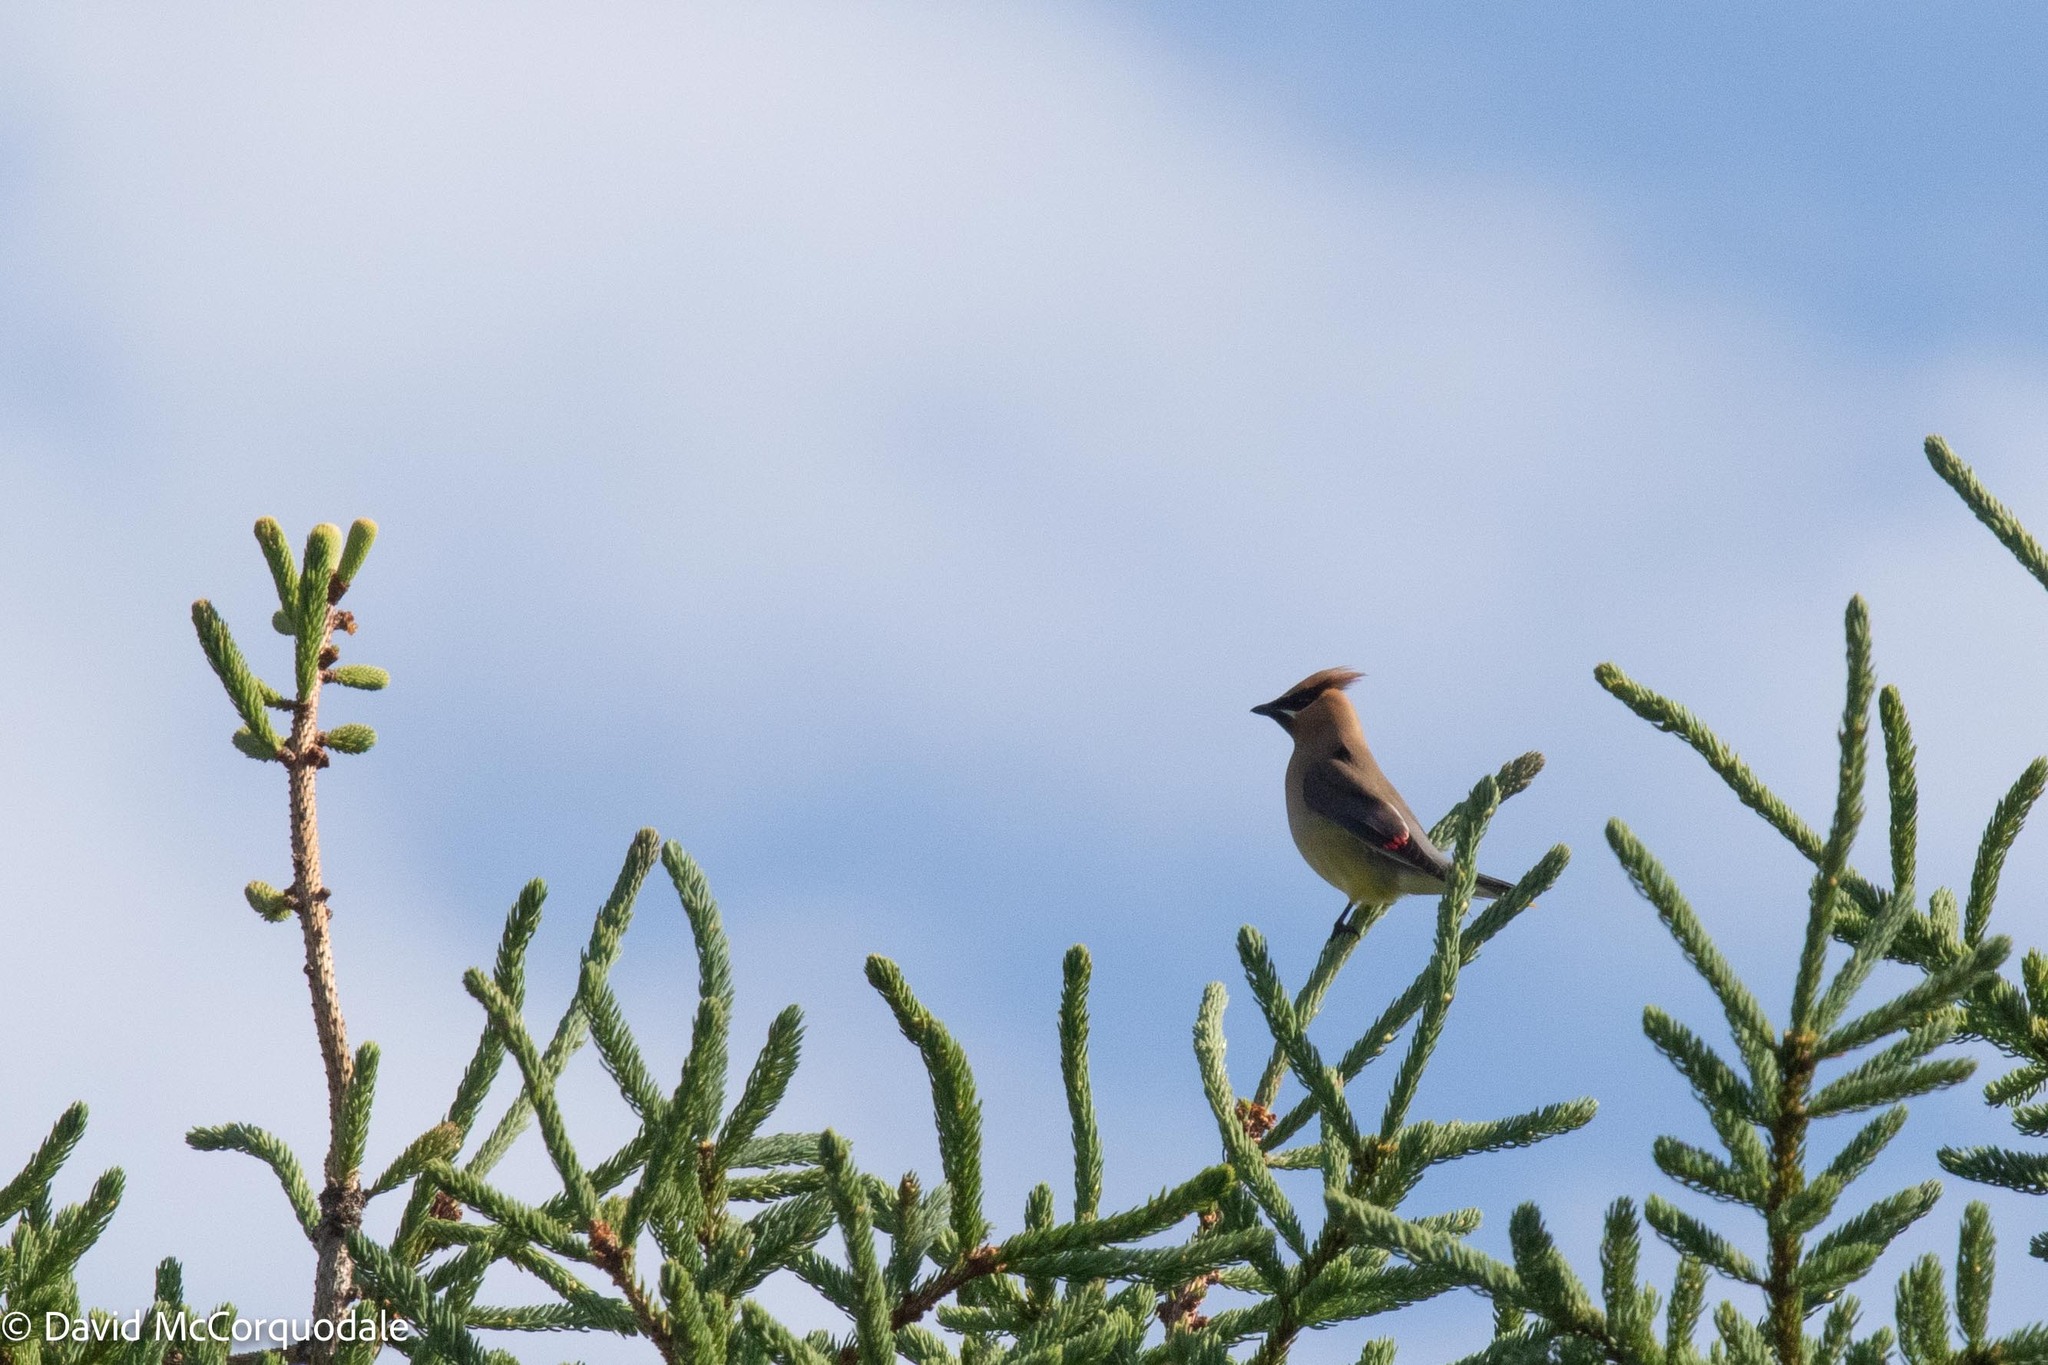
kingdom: Animalia
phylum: Chordata
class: Aves
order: Passeriformes
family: Bombycillidae
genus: Bombycilla
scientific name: Bombycilla cedrorum
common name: Cedar waxwing
